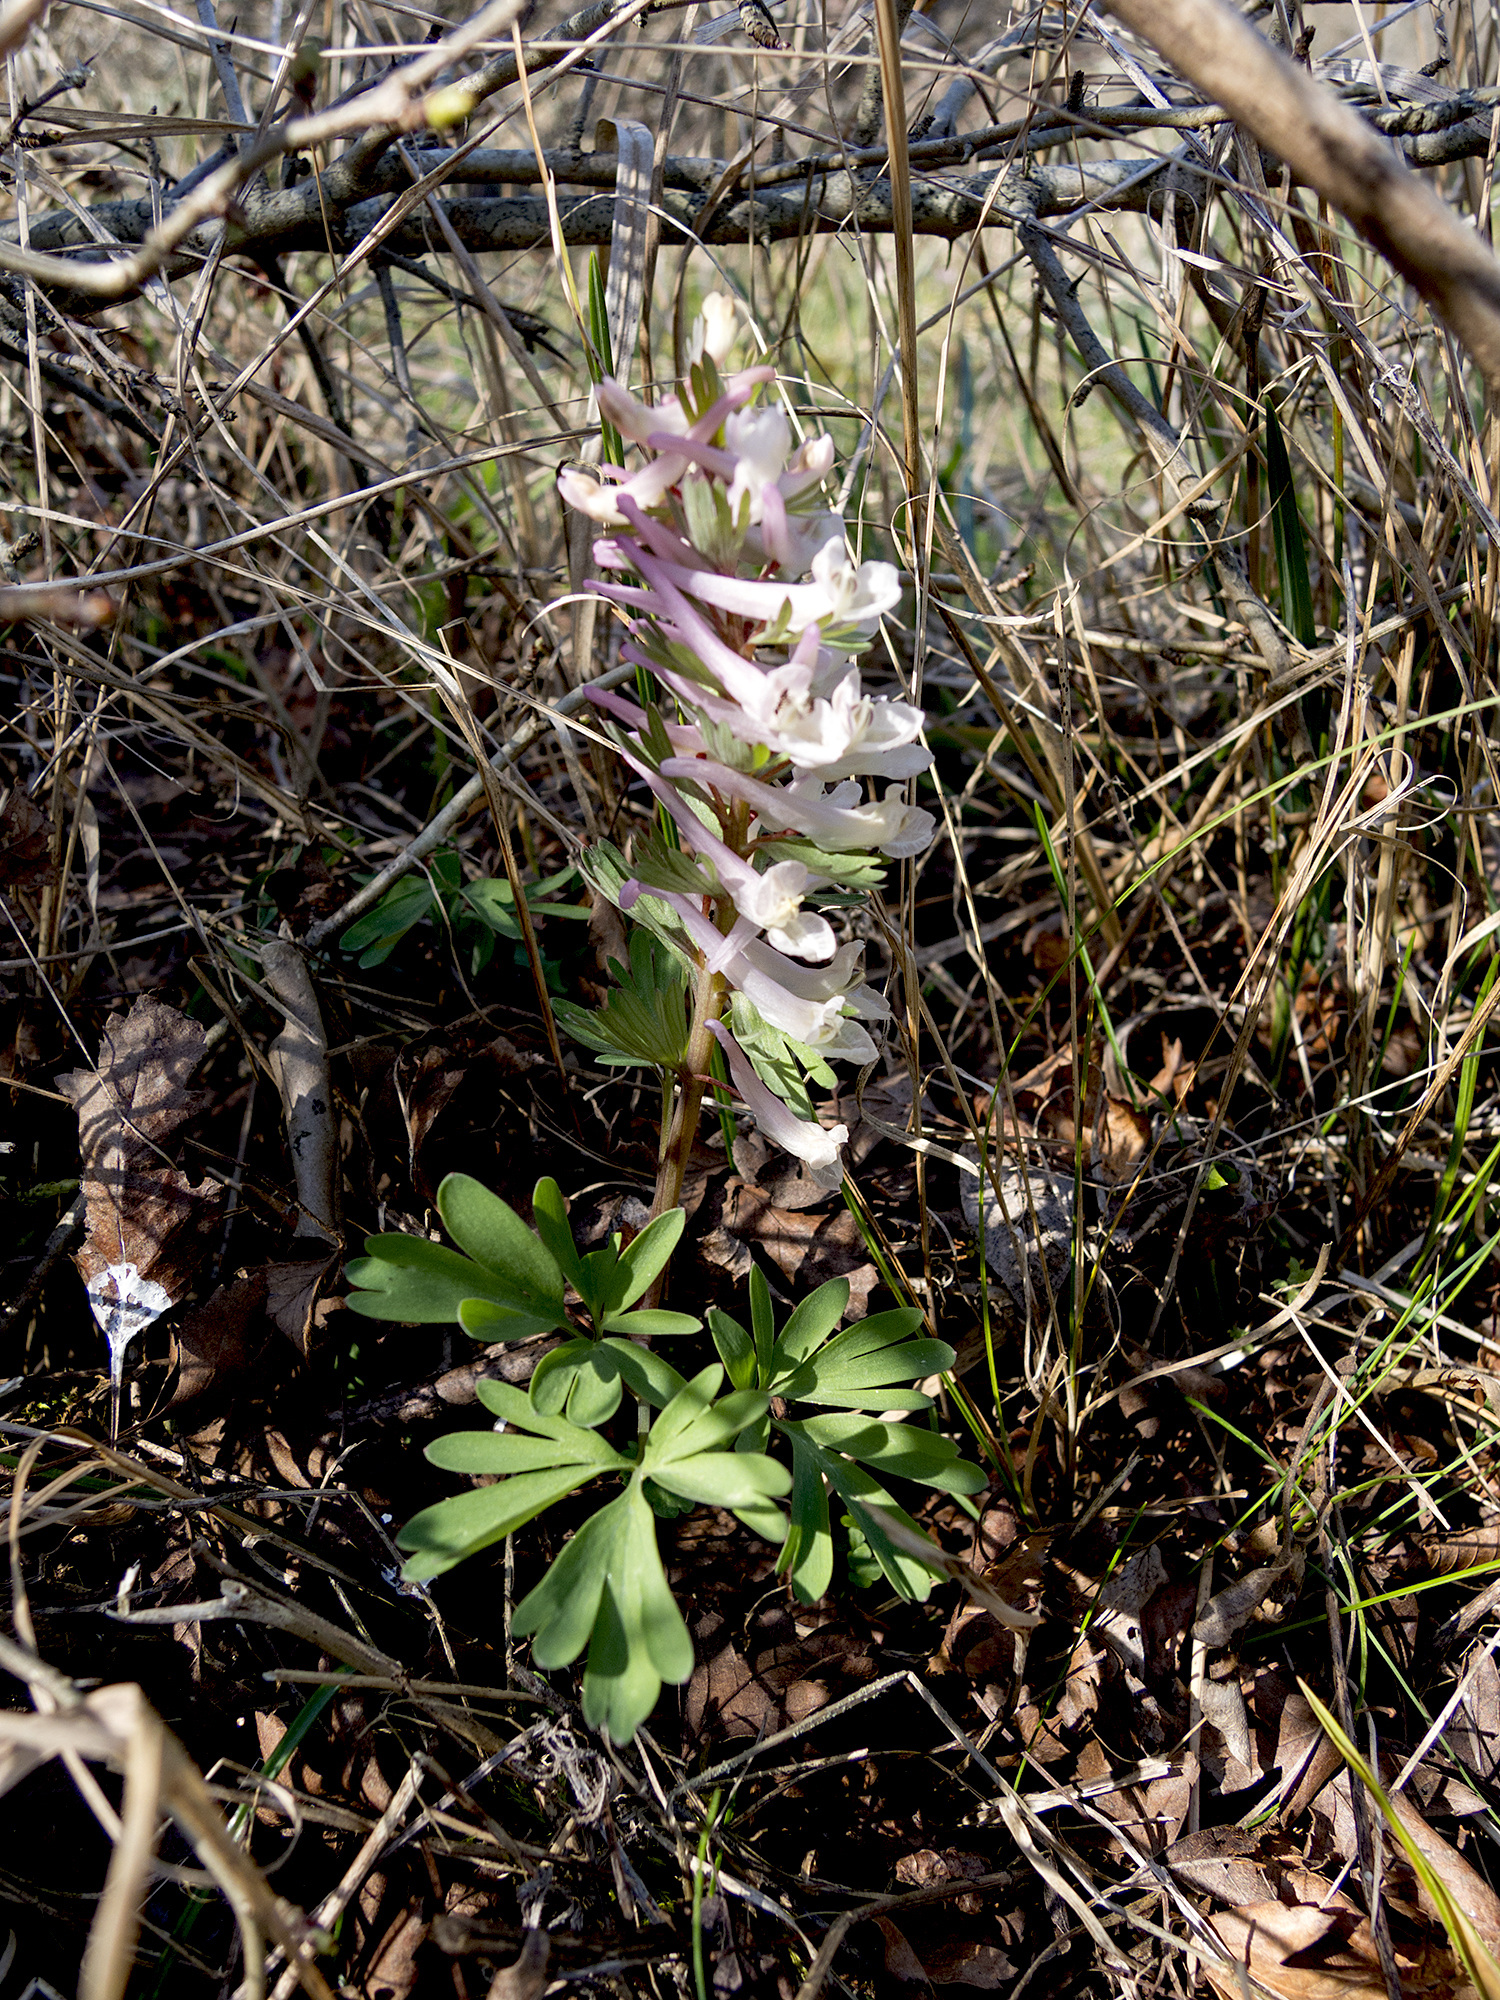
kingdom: Plantae
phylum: Tracheophyta
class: Magnoliopsida
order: Ranunculales
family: Papaveraceae
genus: Corydalis
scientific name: Corydalis solida
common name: Bird-in-a-bush
